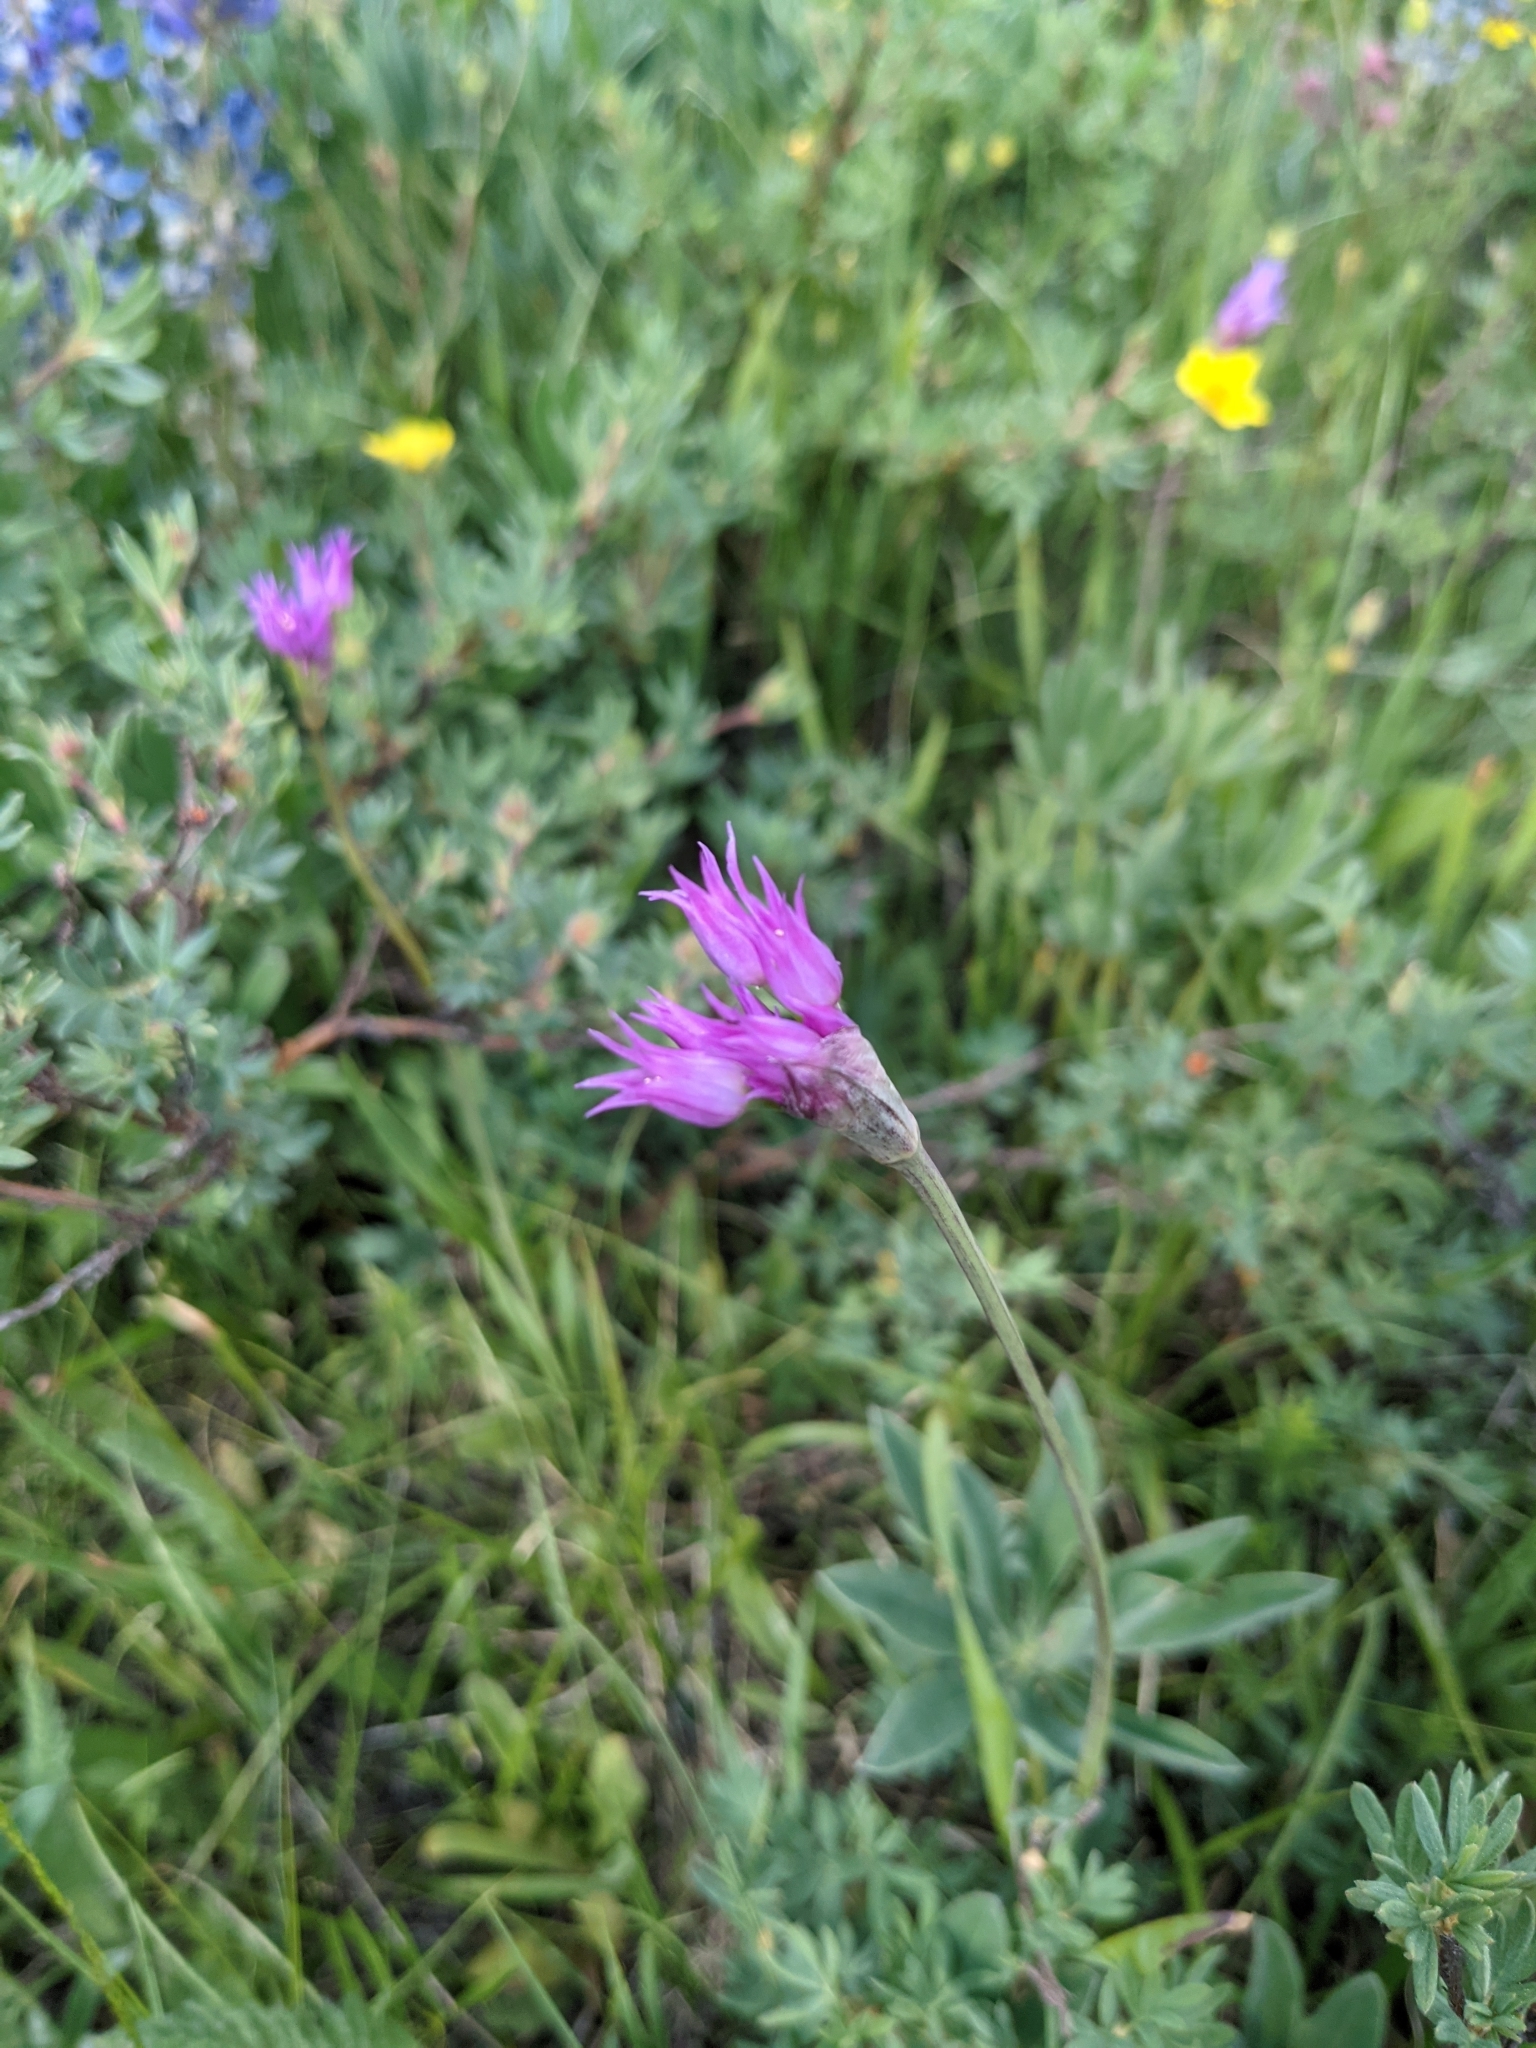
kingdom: Plantae
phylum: Tracheophyta
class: Liliopsida
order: Asparagales
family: Amaryllidaceae
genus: Allium
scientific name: Allium brevistylum
